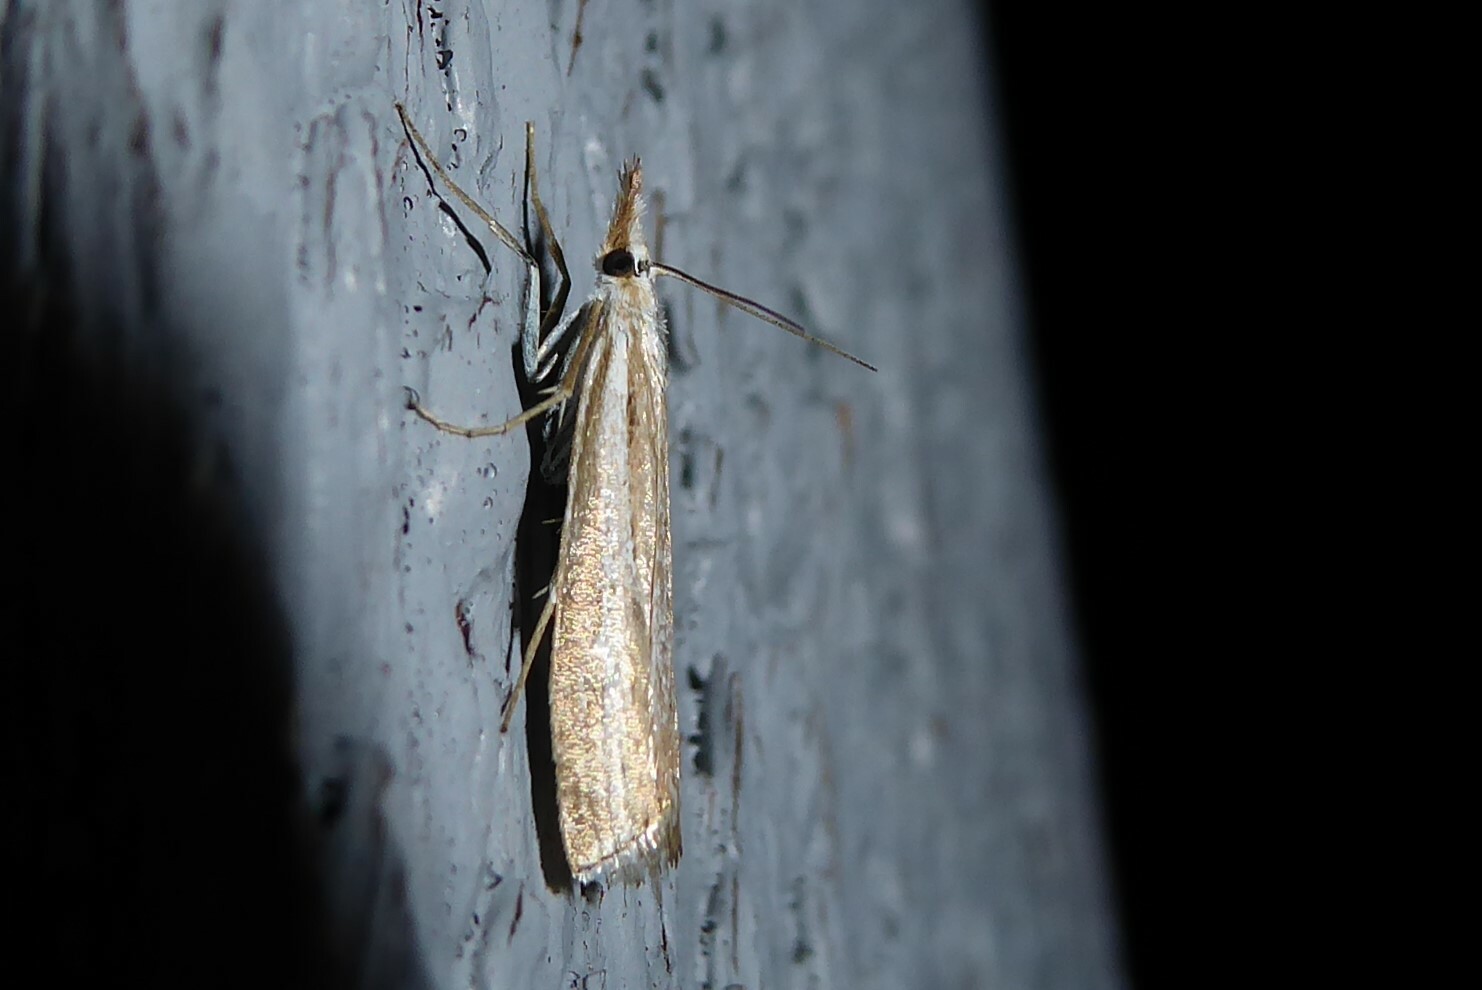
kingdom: Animalia
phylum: Arthropoda
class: Insecta
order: Lepidoptera
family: Crambidae
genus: Orocrambus
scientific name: Orocrambus vittellus
